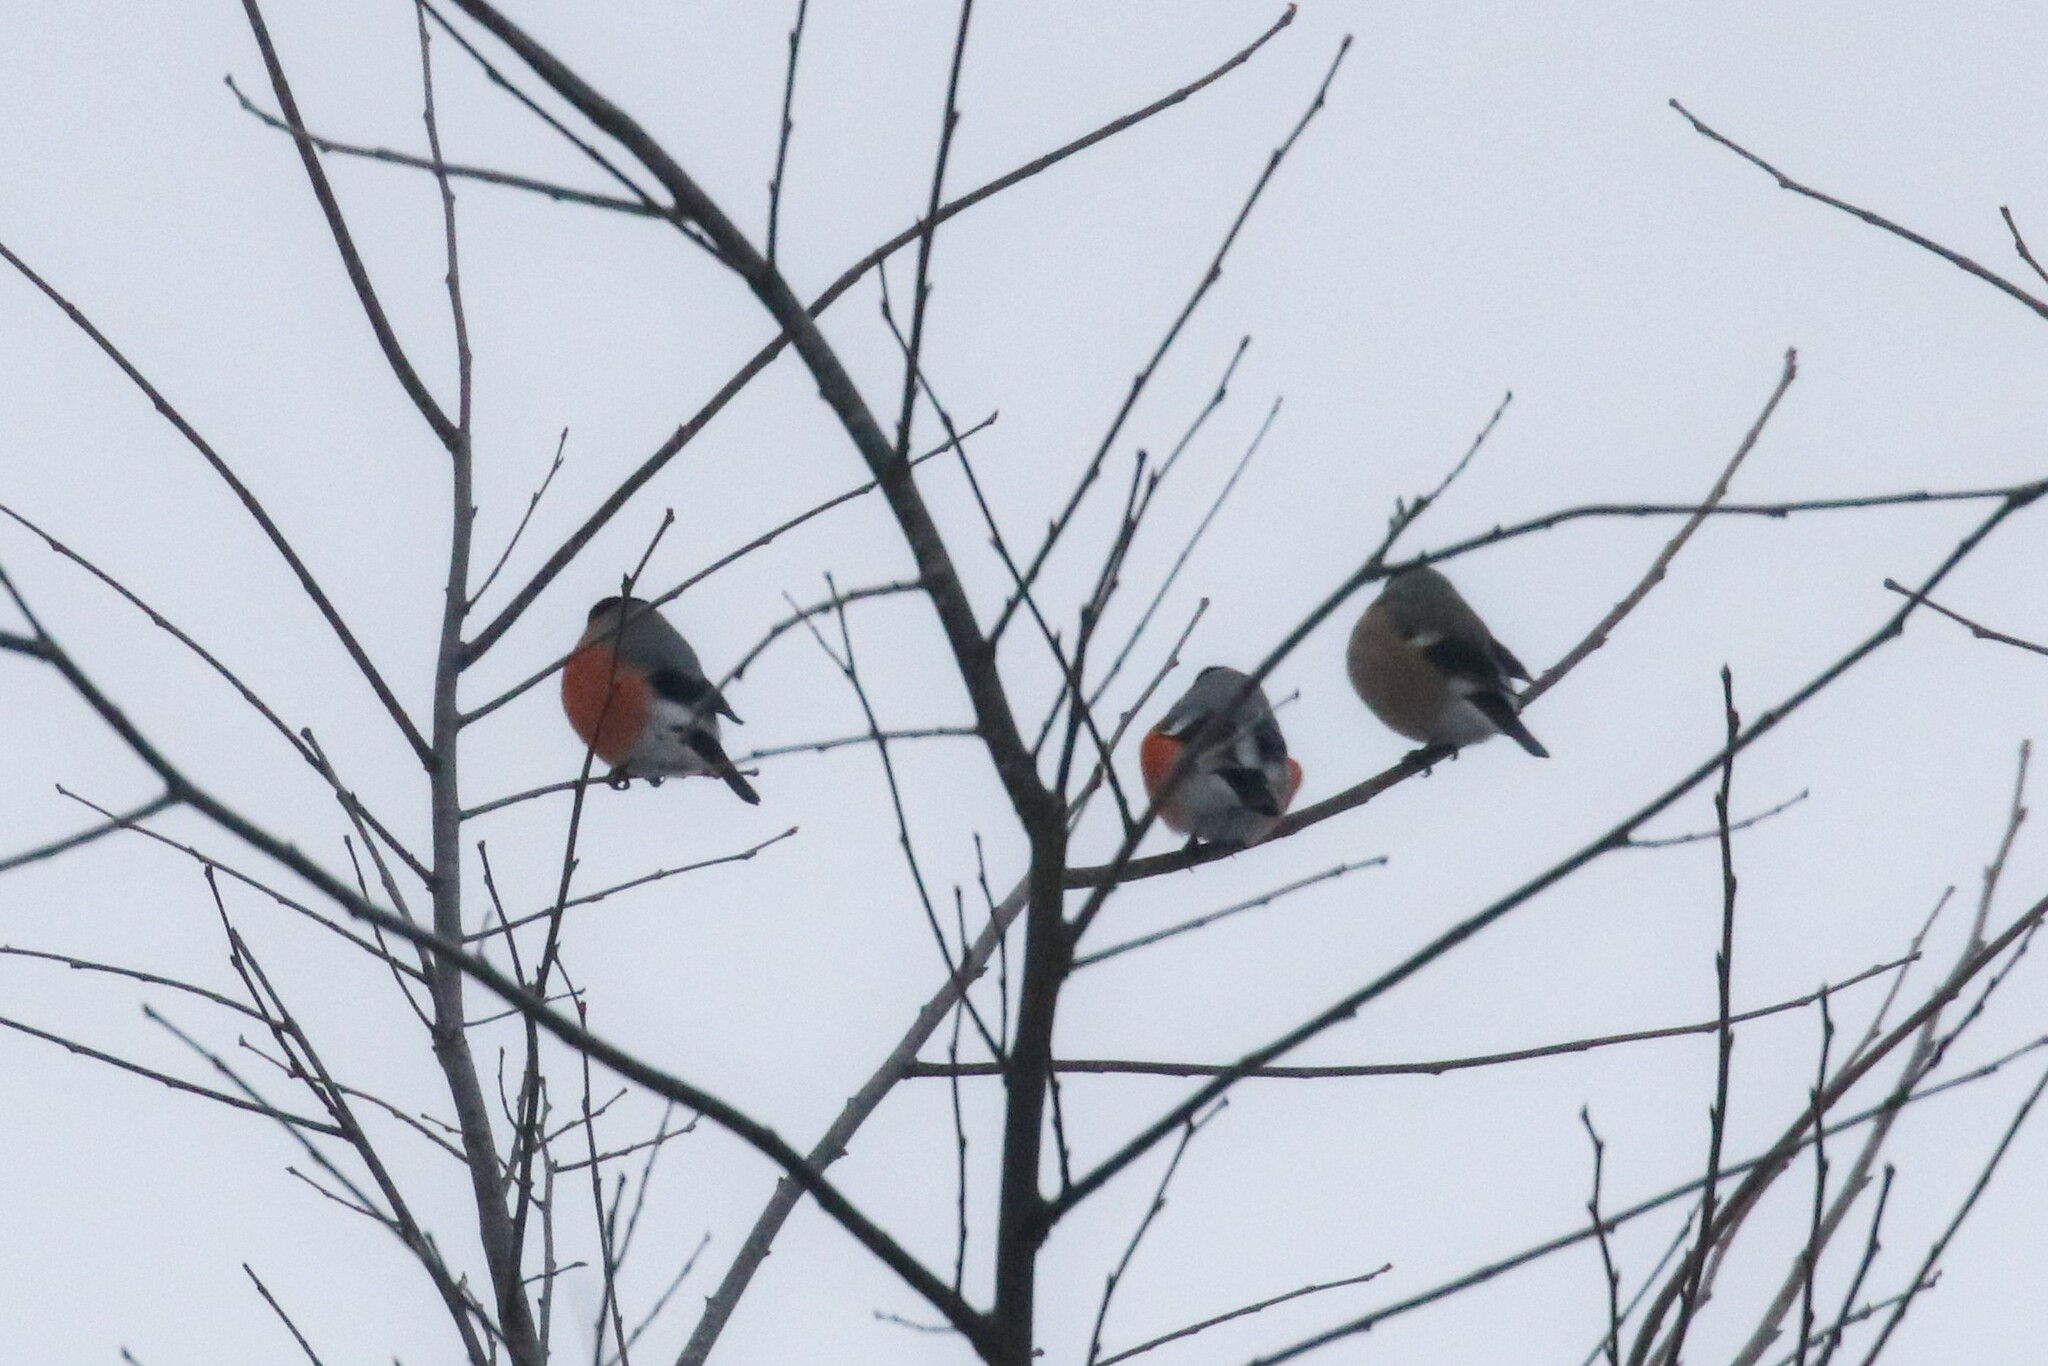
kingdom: Animalia
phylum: Chordata
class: Aves
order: Passeriformes
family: Fringillidae
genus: Pyrrhula
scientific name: Pyrrhula pyrrhula
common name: Eurasian bullfinch
